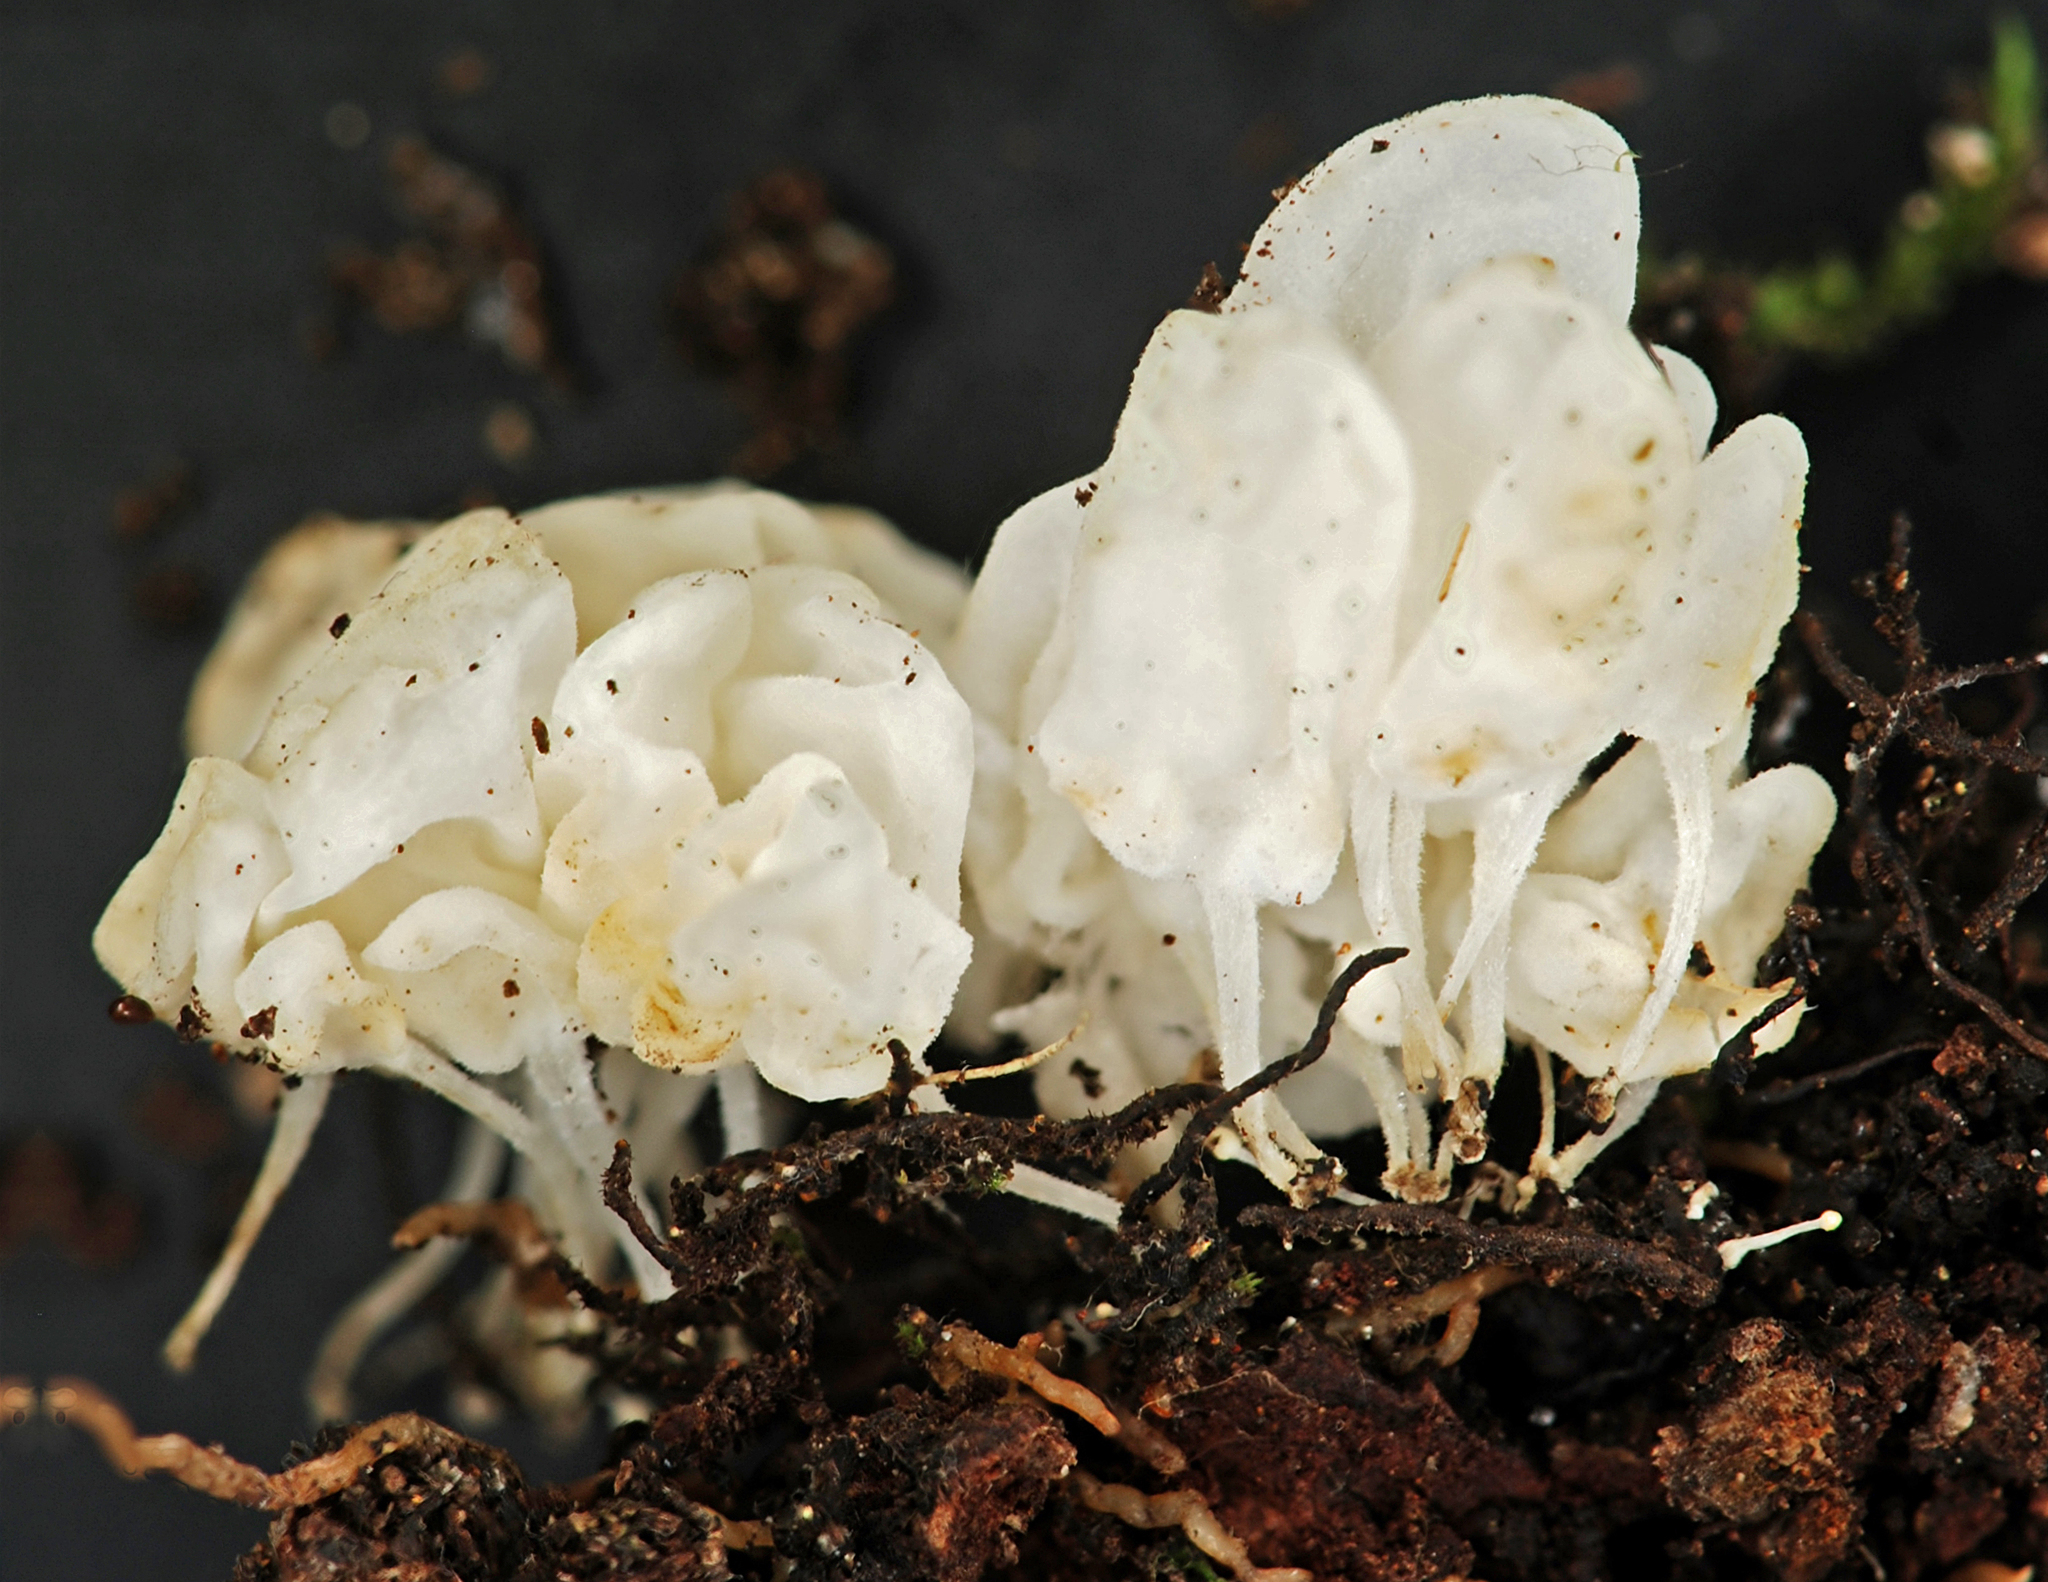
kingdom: Fungi
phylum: Basidiomycota
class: Agaricomycetes
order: Agaricales
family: Physalacriaceae
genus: Physalacria
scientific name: Physalacria pseudotropica
